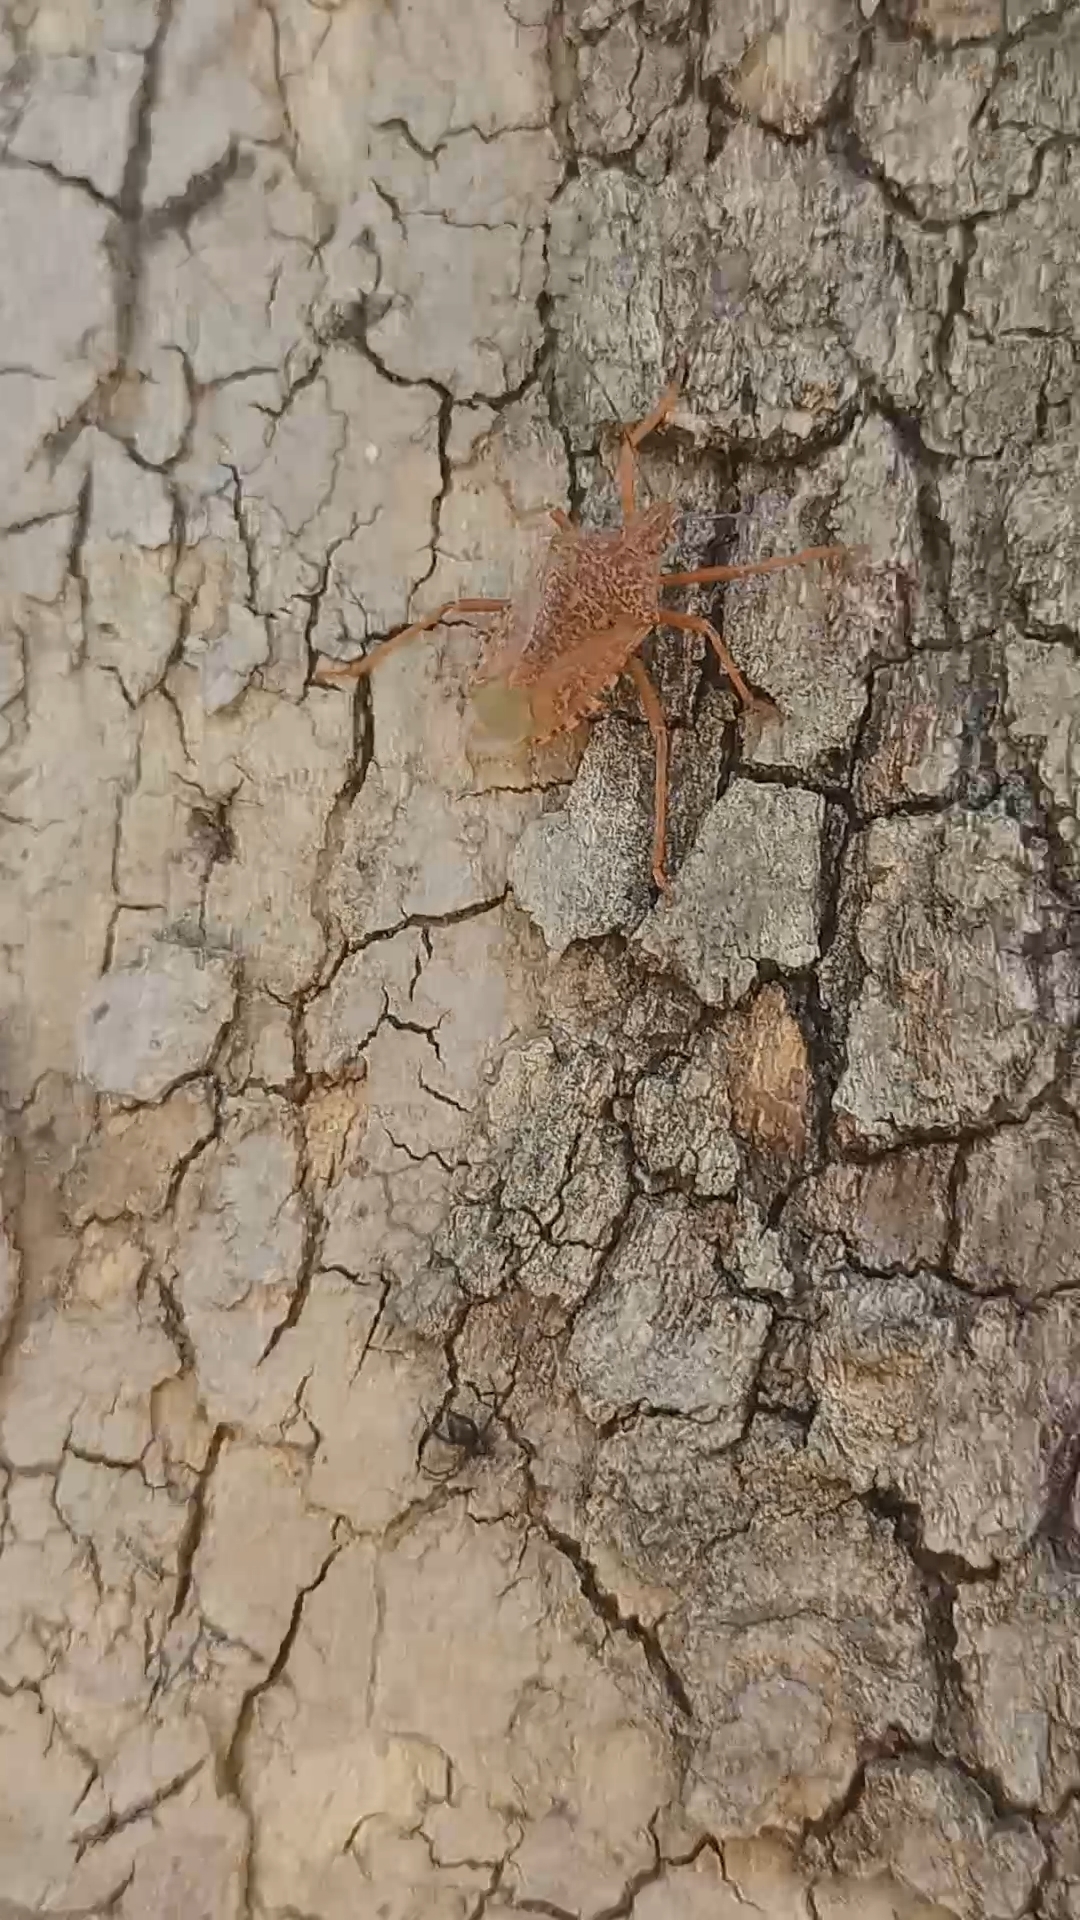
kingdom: Animalia
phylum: Arthropoda
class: Insecta
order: Hemiptera
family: Pentatomidae
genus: Apodiphus
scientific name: Apodiphus
